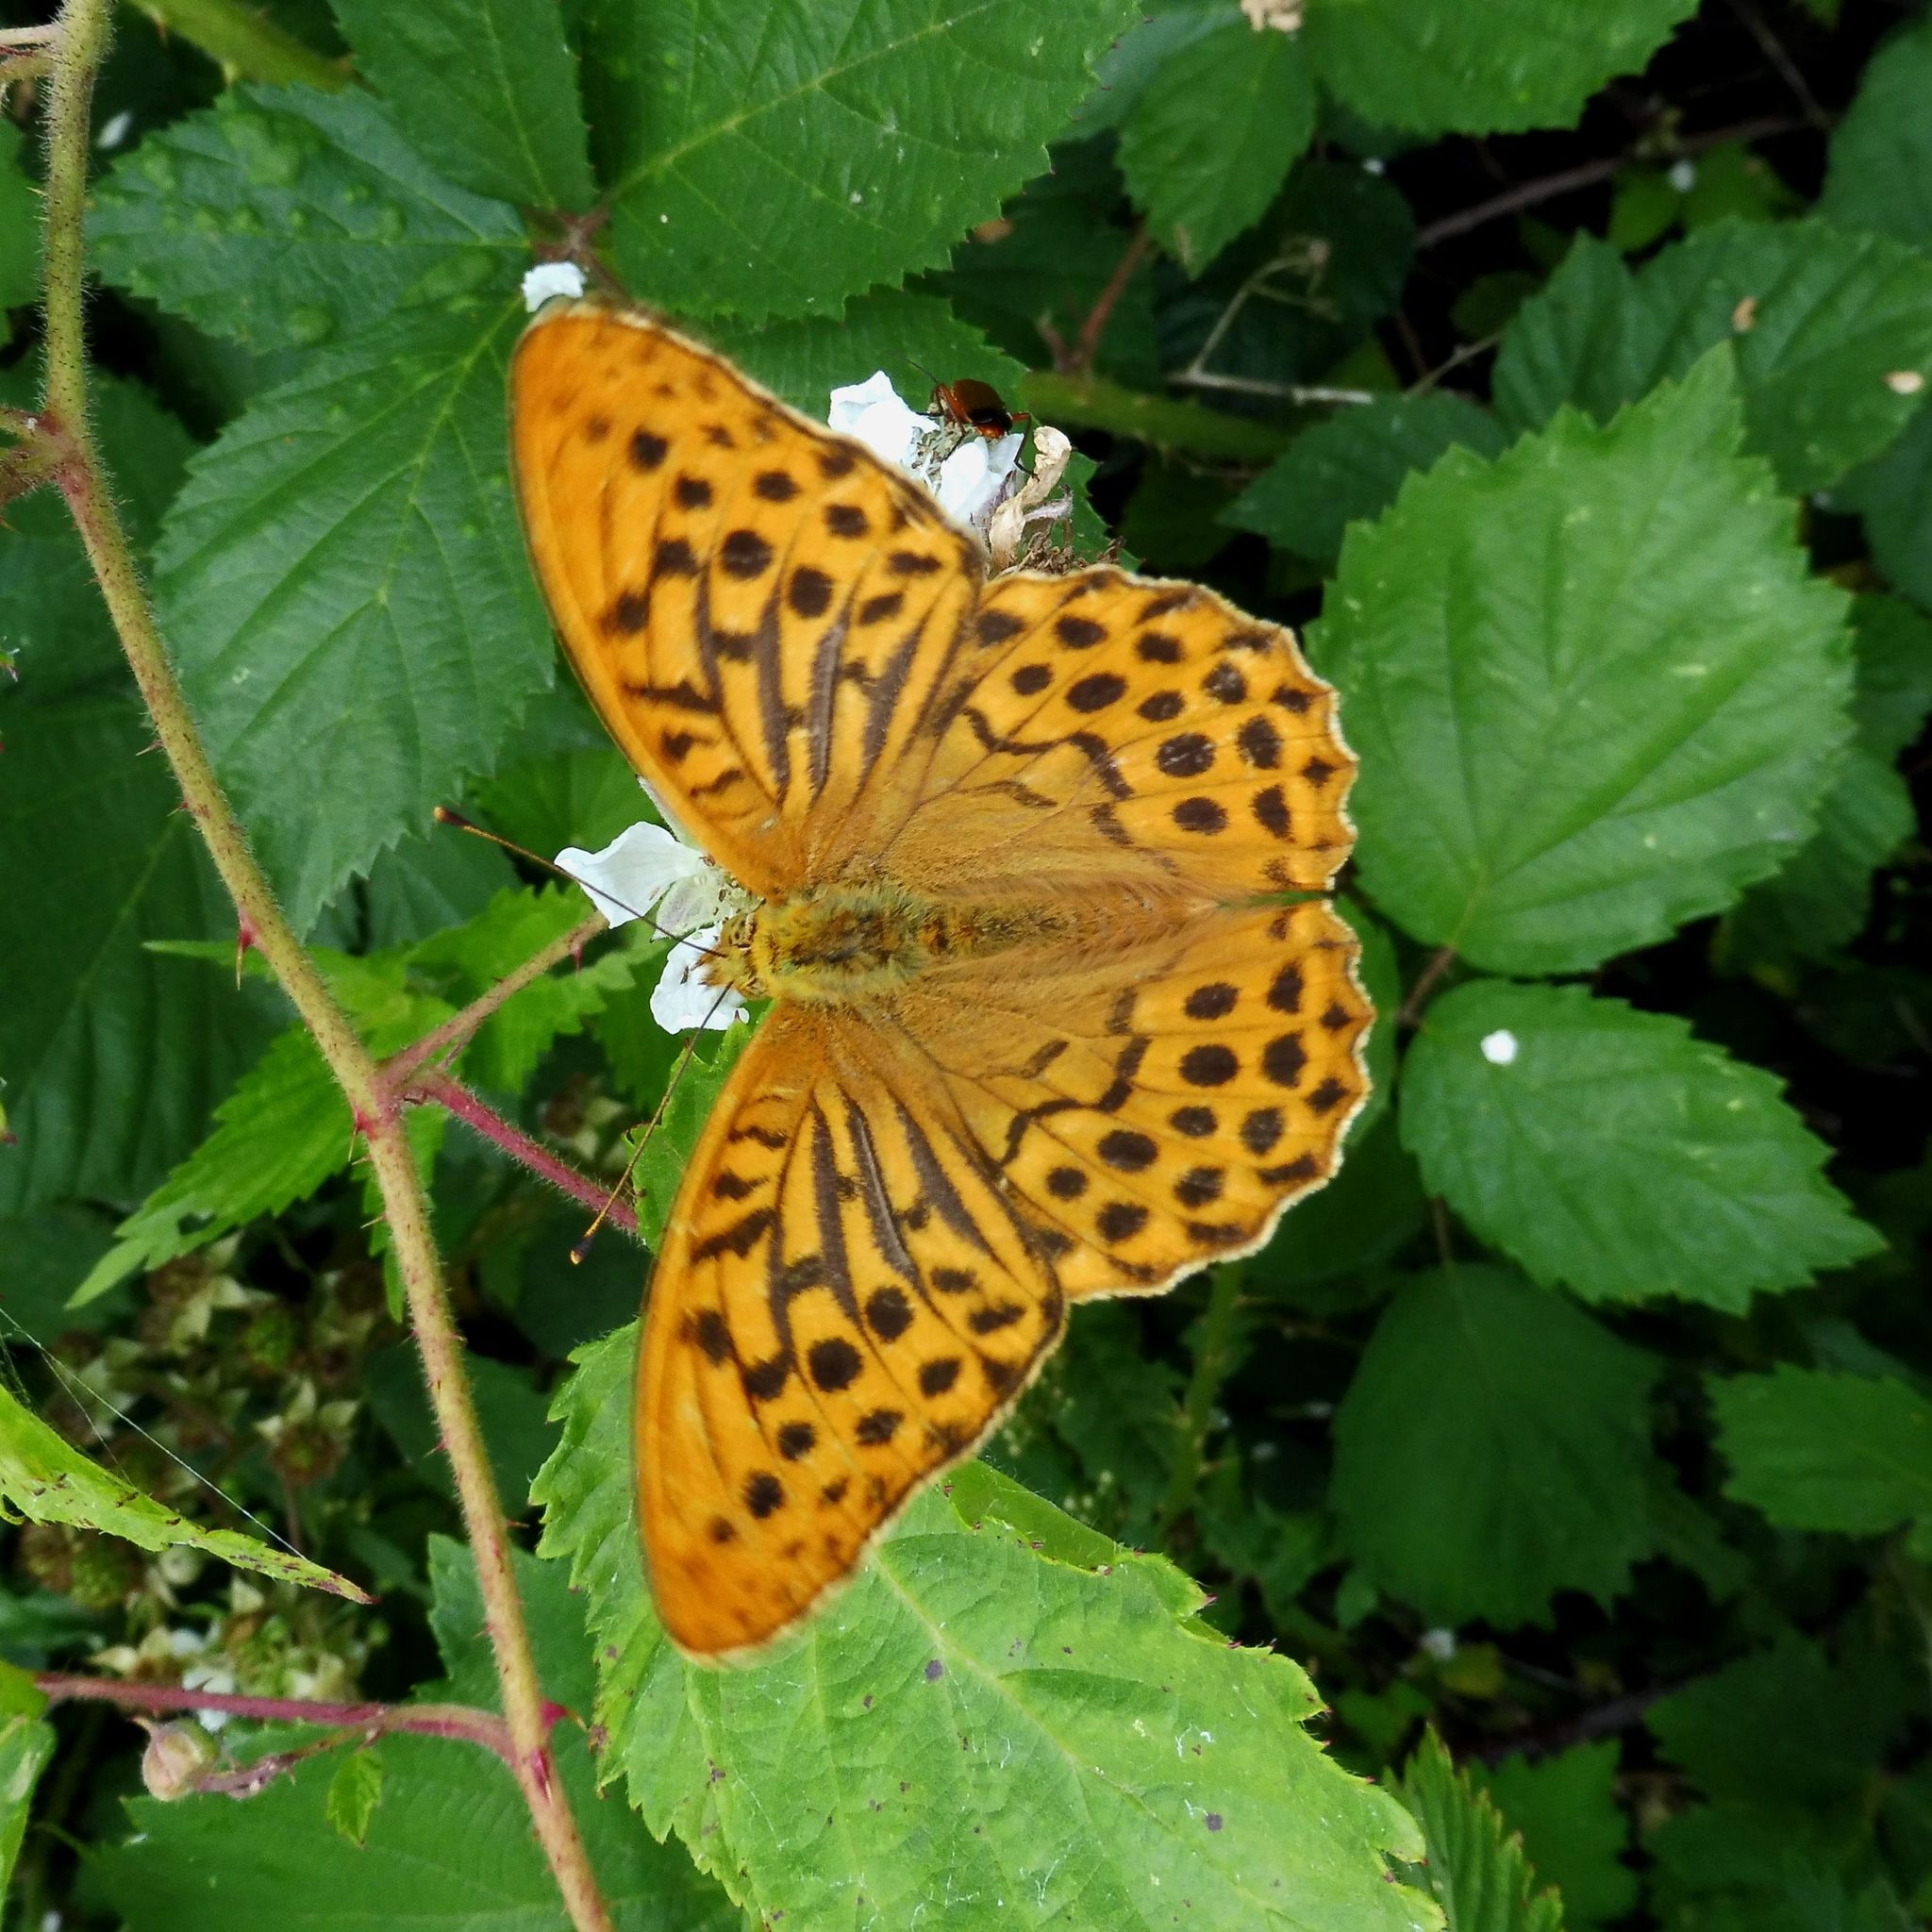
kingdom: Animalia
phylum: Arthropoda
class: Insecta
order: Lepidoptera
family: Nymphalidae
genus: Argynnis
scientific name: Argynnis paphia
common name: Silver-washed fritillary
